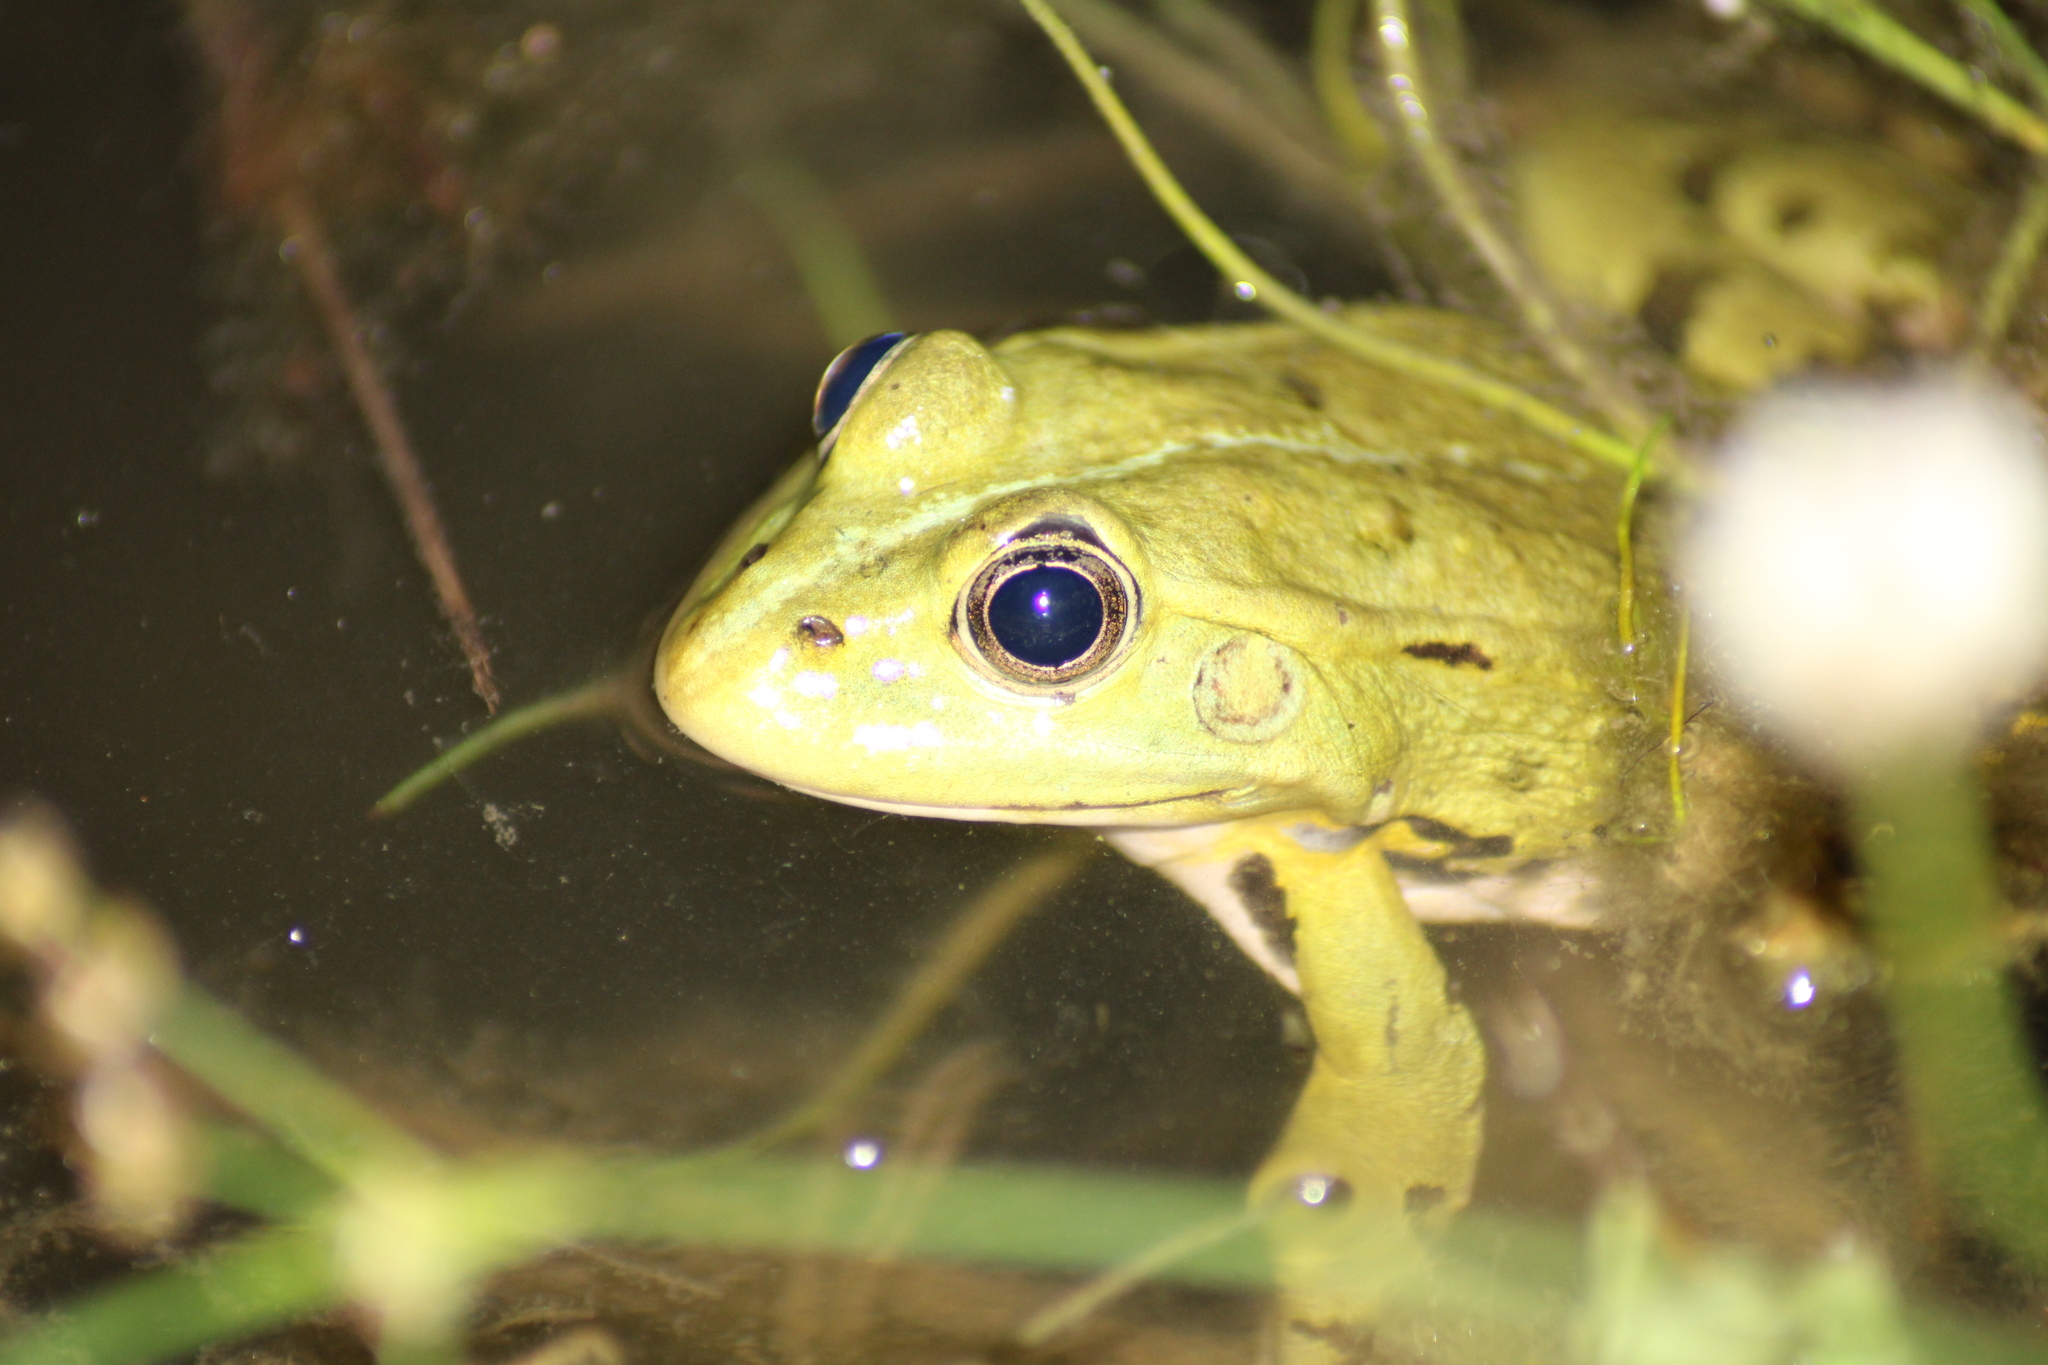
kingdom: Animalia
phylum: Chordata
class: Amphibia
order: Anura
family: Ranidae
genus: Pelophylax
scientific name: Pelophylax
